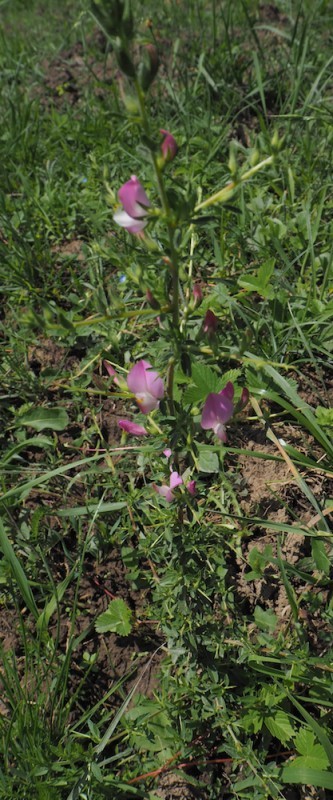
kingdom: Plantae
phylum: Tracheophyta
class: Magnoliopsida
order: Fabales
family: Fabaceae
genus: Ononis
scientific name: Ononis spinosa
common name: Spiny restharrow
